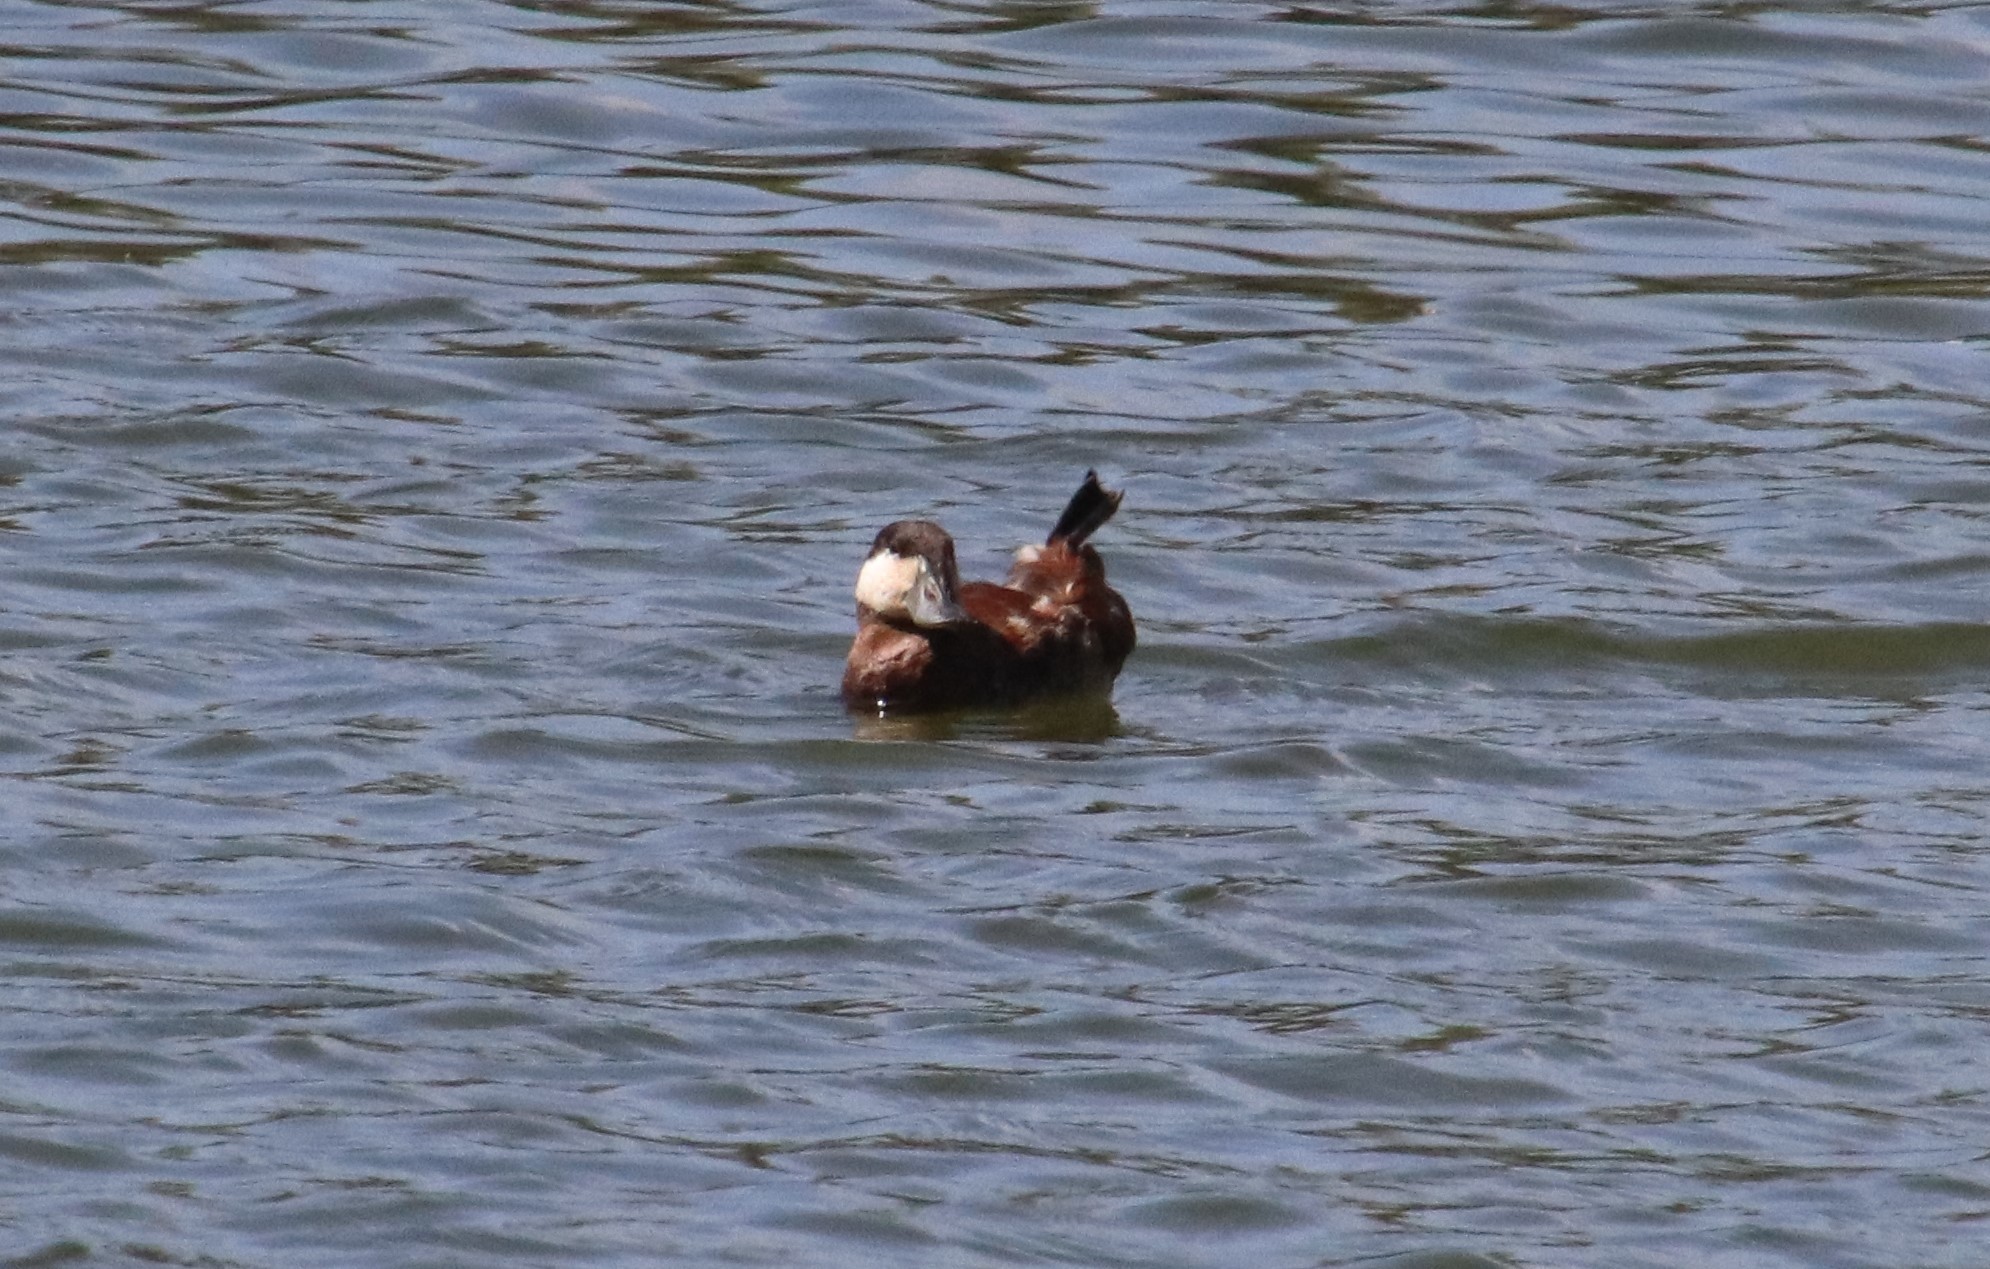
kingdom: Animalia
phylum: Chordata
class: Aves
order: Anseriformes
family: Anatidae
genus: Oxyura
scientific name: Oxyura jamaicensis
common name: Ruddy duck
